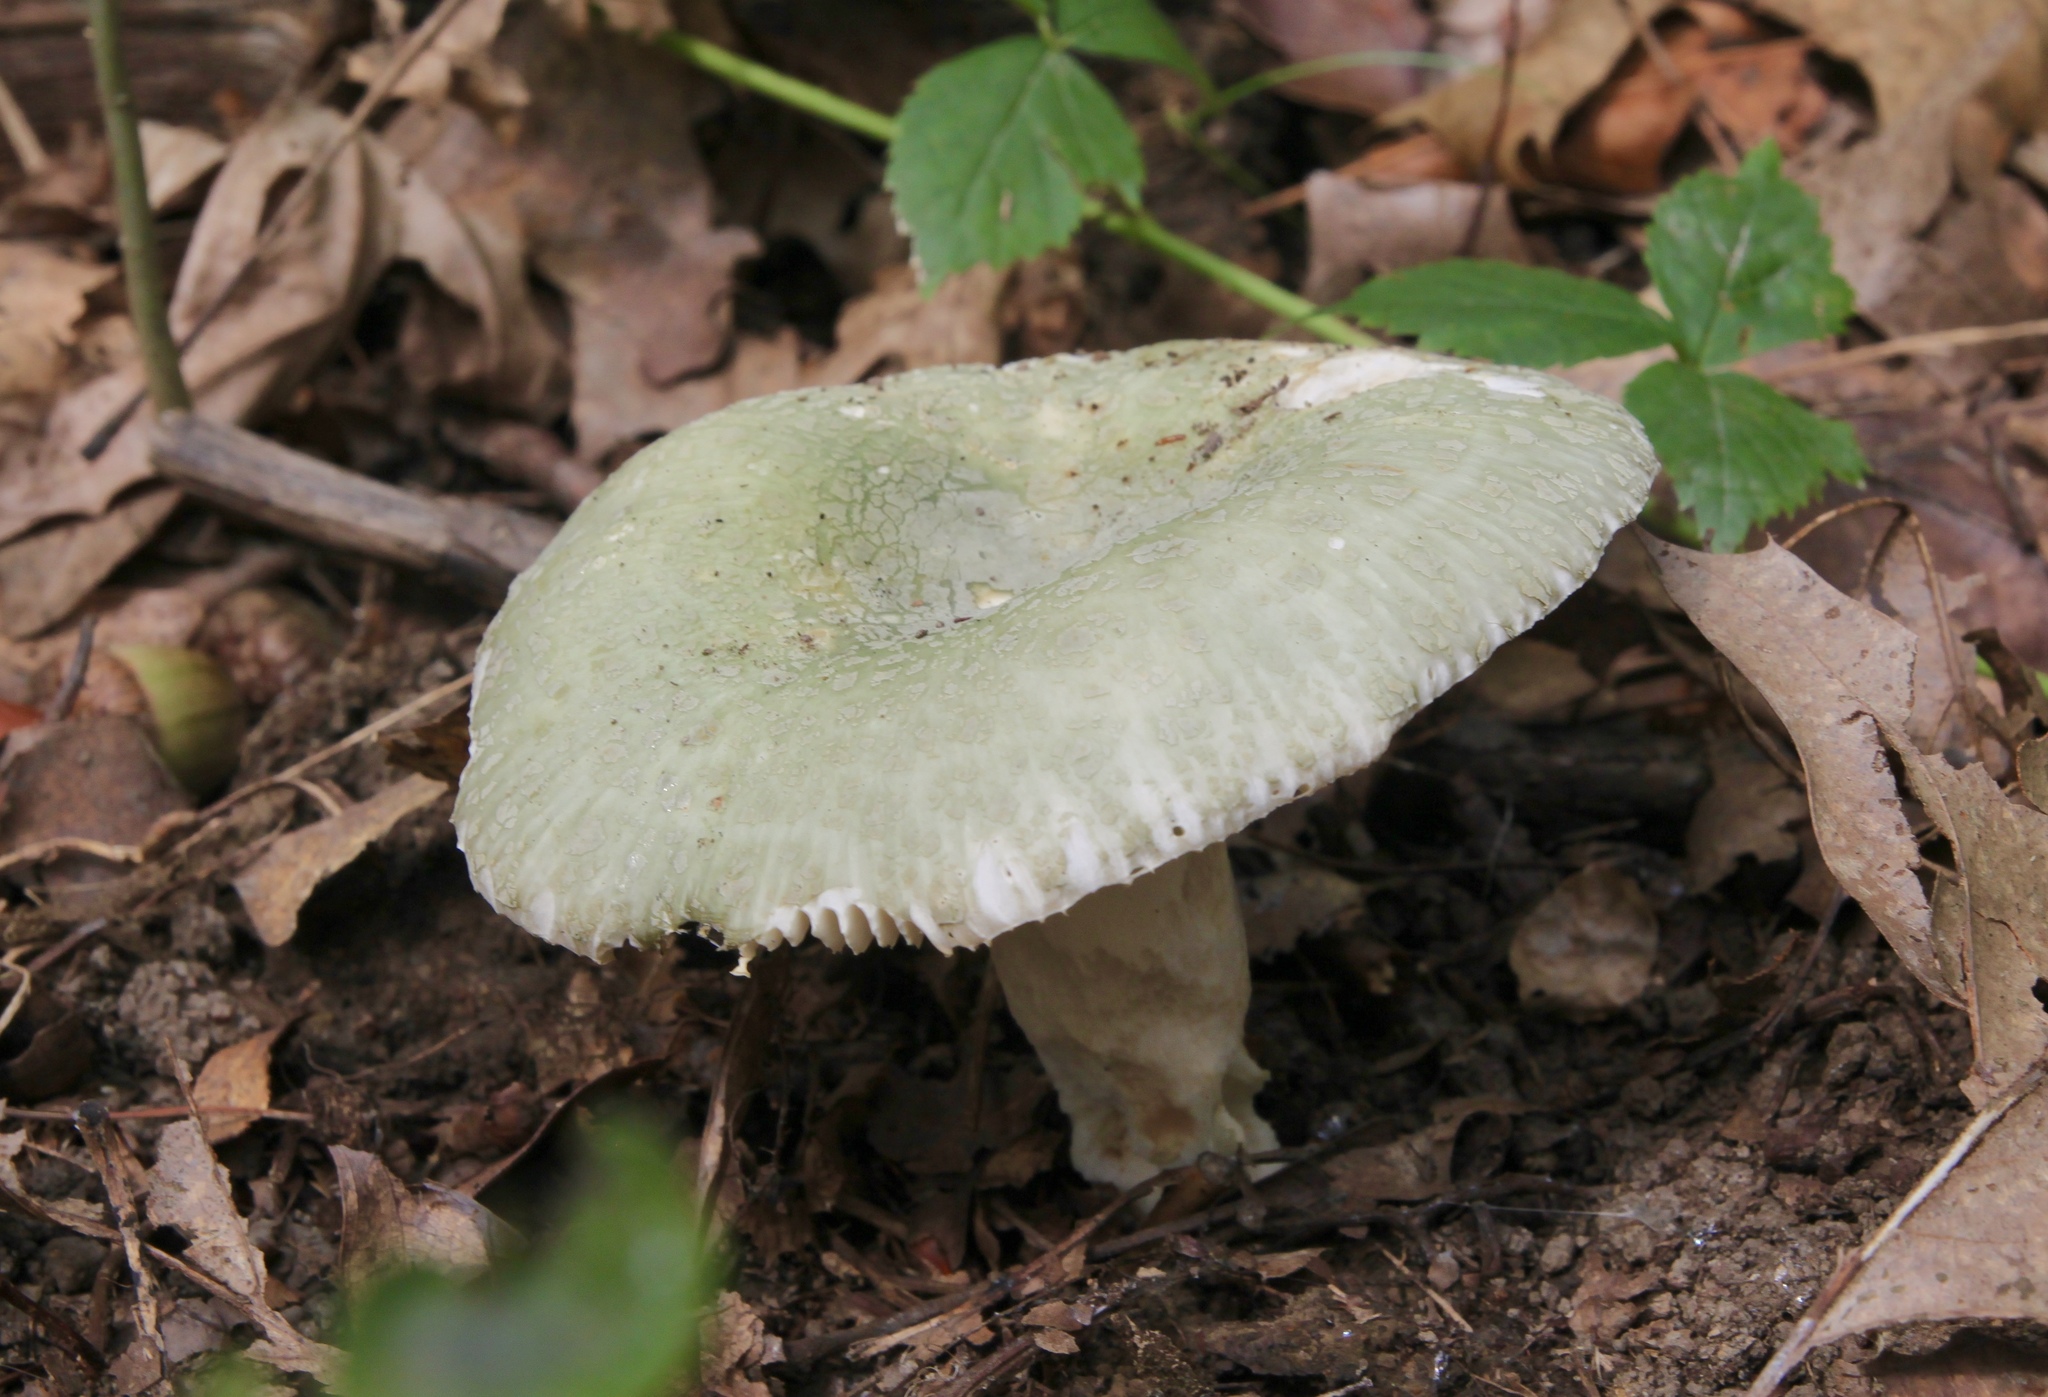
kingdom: Fungi
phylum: Basidiomycota
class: Agaricomycetes
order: Russulales
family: Russulaceae
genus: Russula
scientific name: Russula parvovirescens
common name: Blue-green cracking russula
